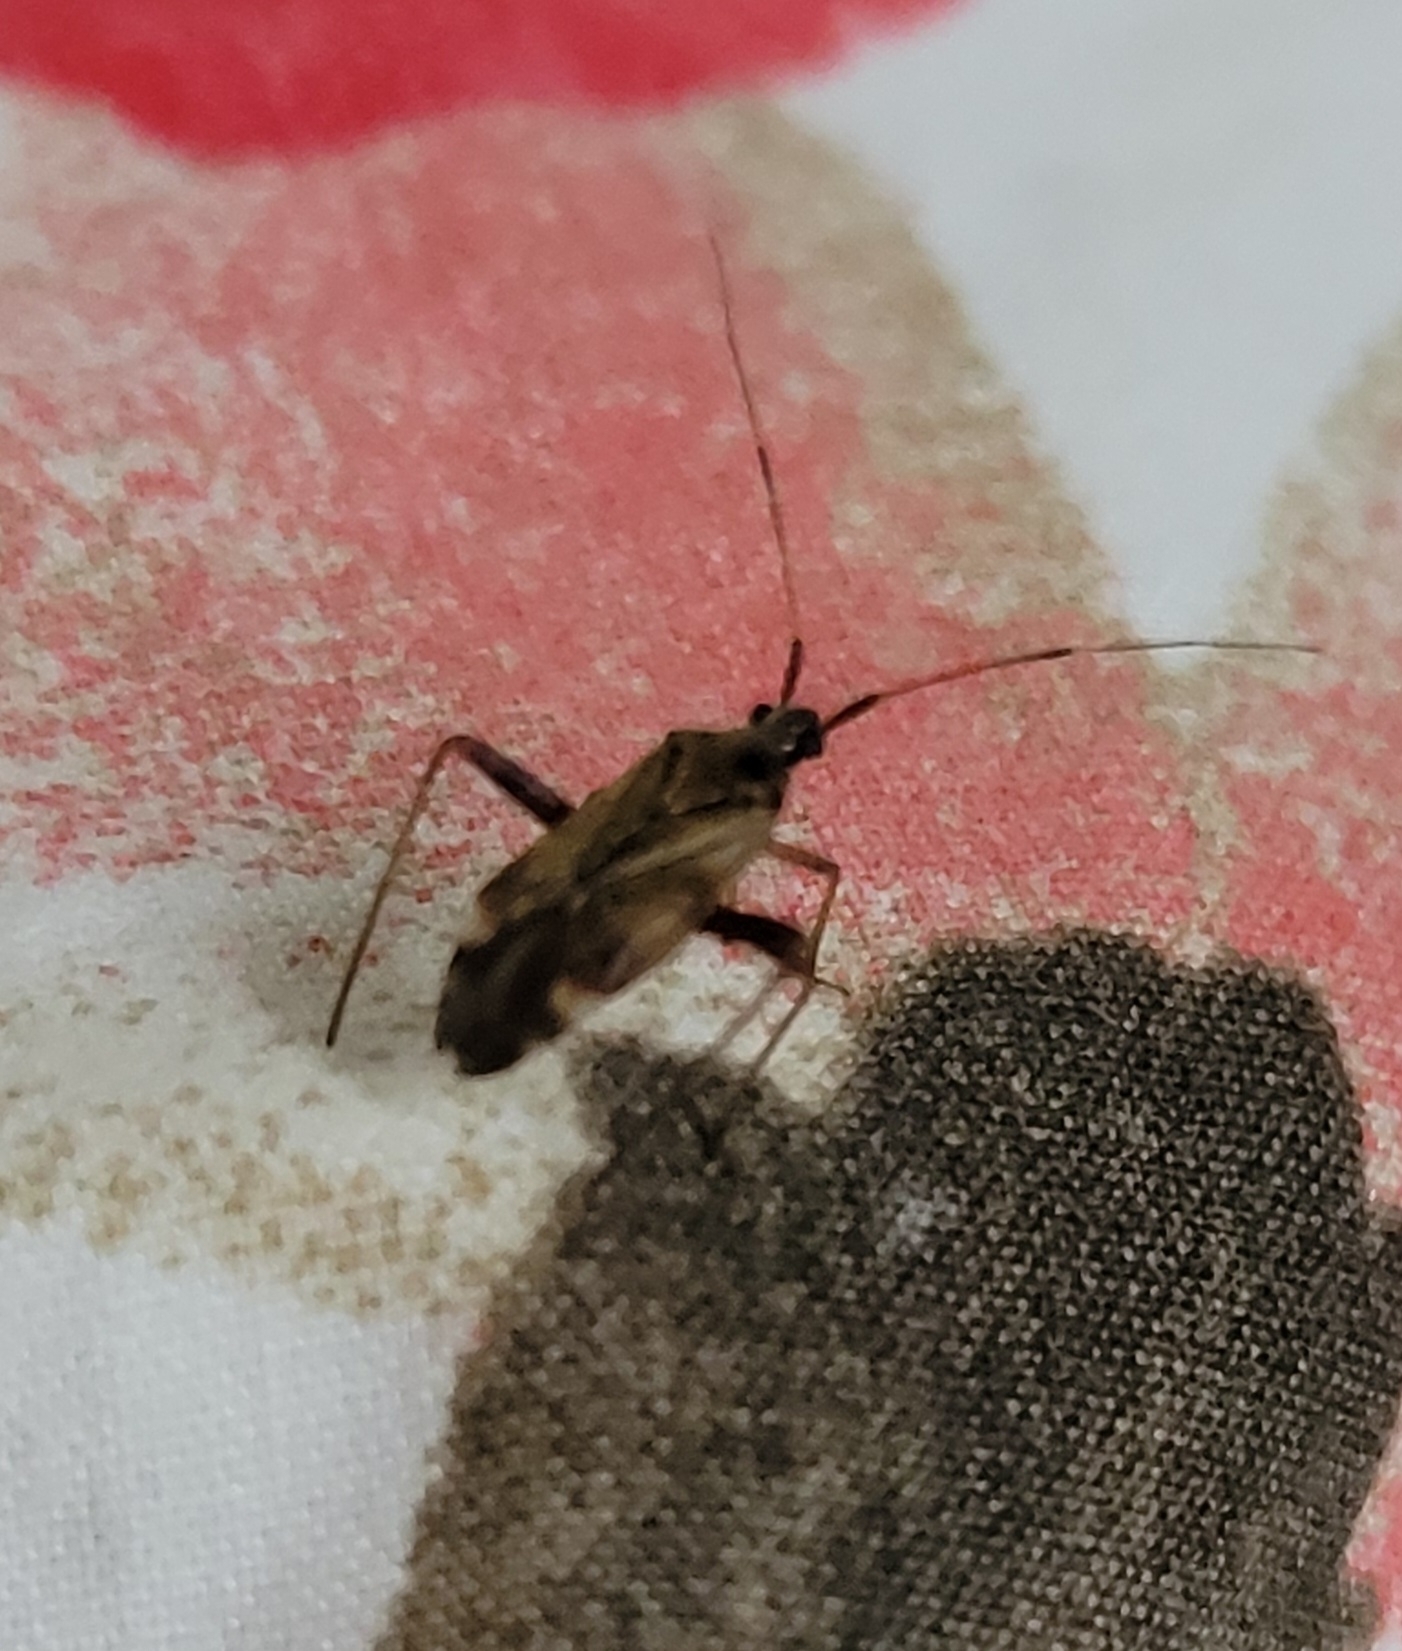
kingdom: Animalia
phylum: Arthropoda
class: Insecta
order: Hemiptera
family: Miridae
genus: Closterotomus
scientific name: Closterotomus fulvomaculatus
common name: Spotted plant bug
